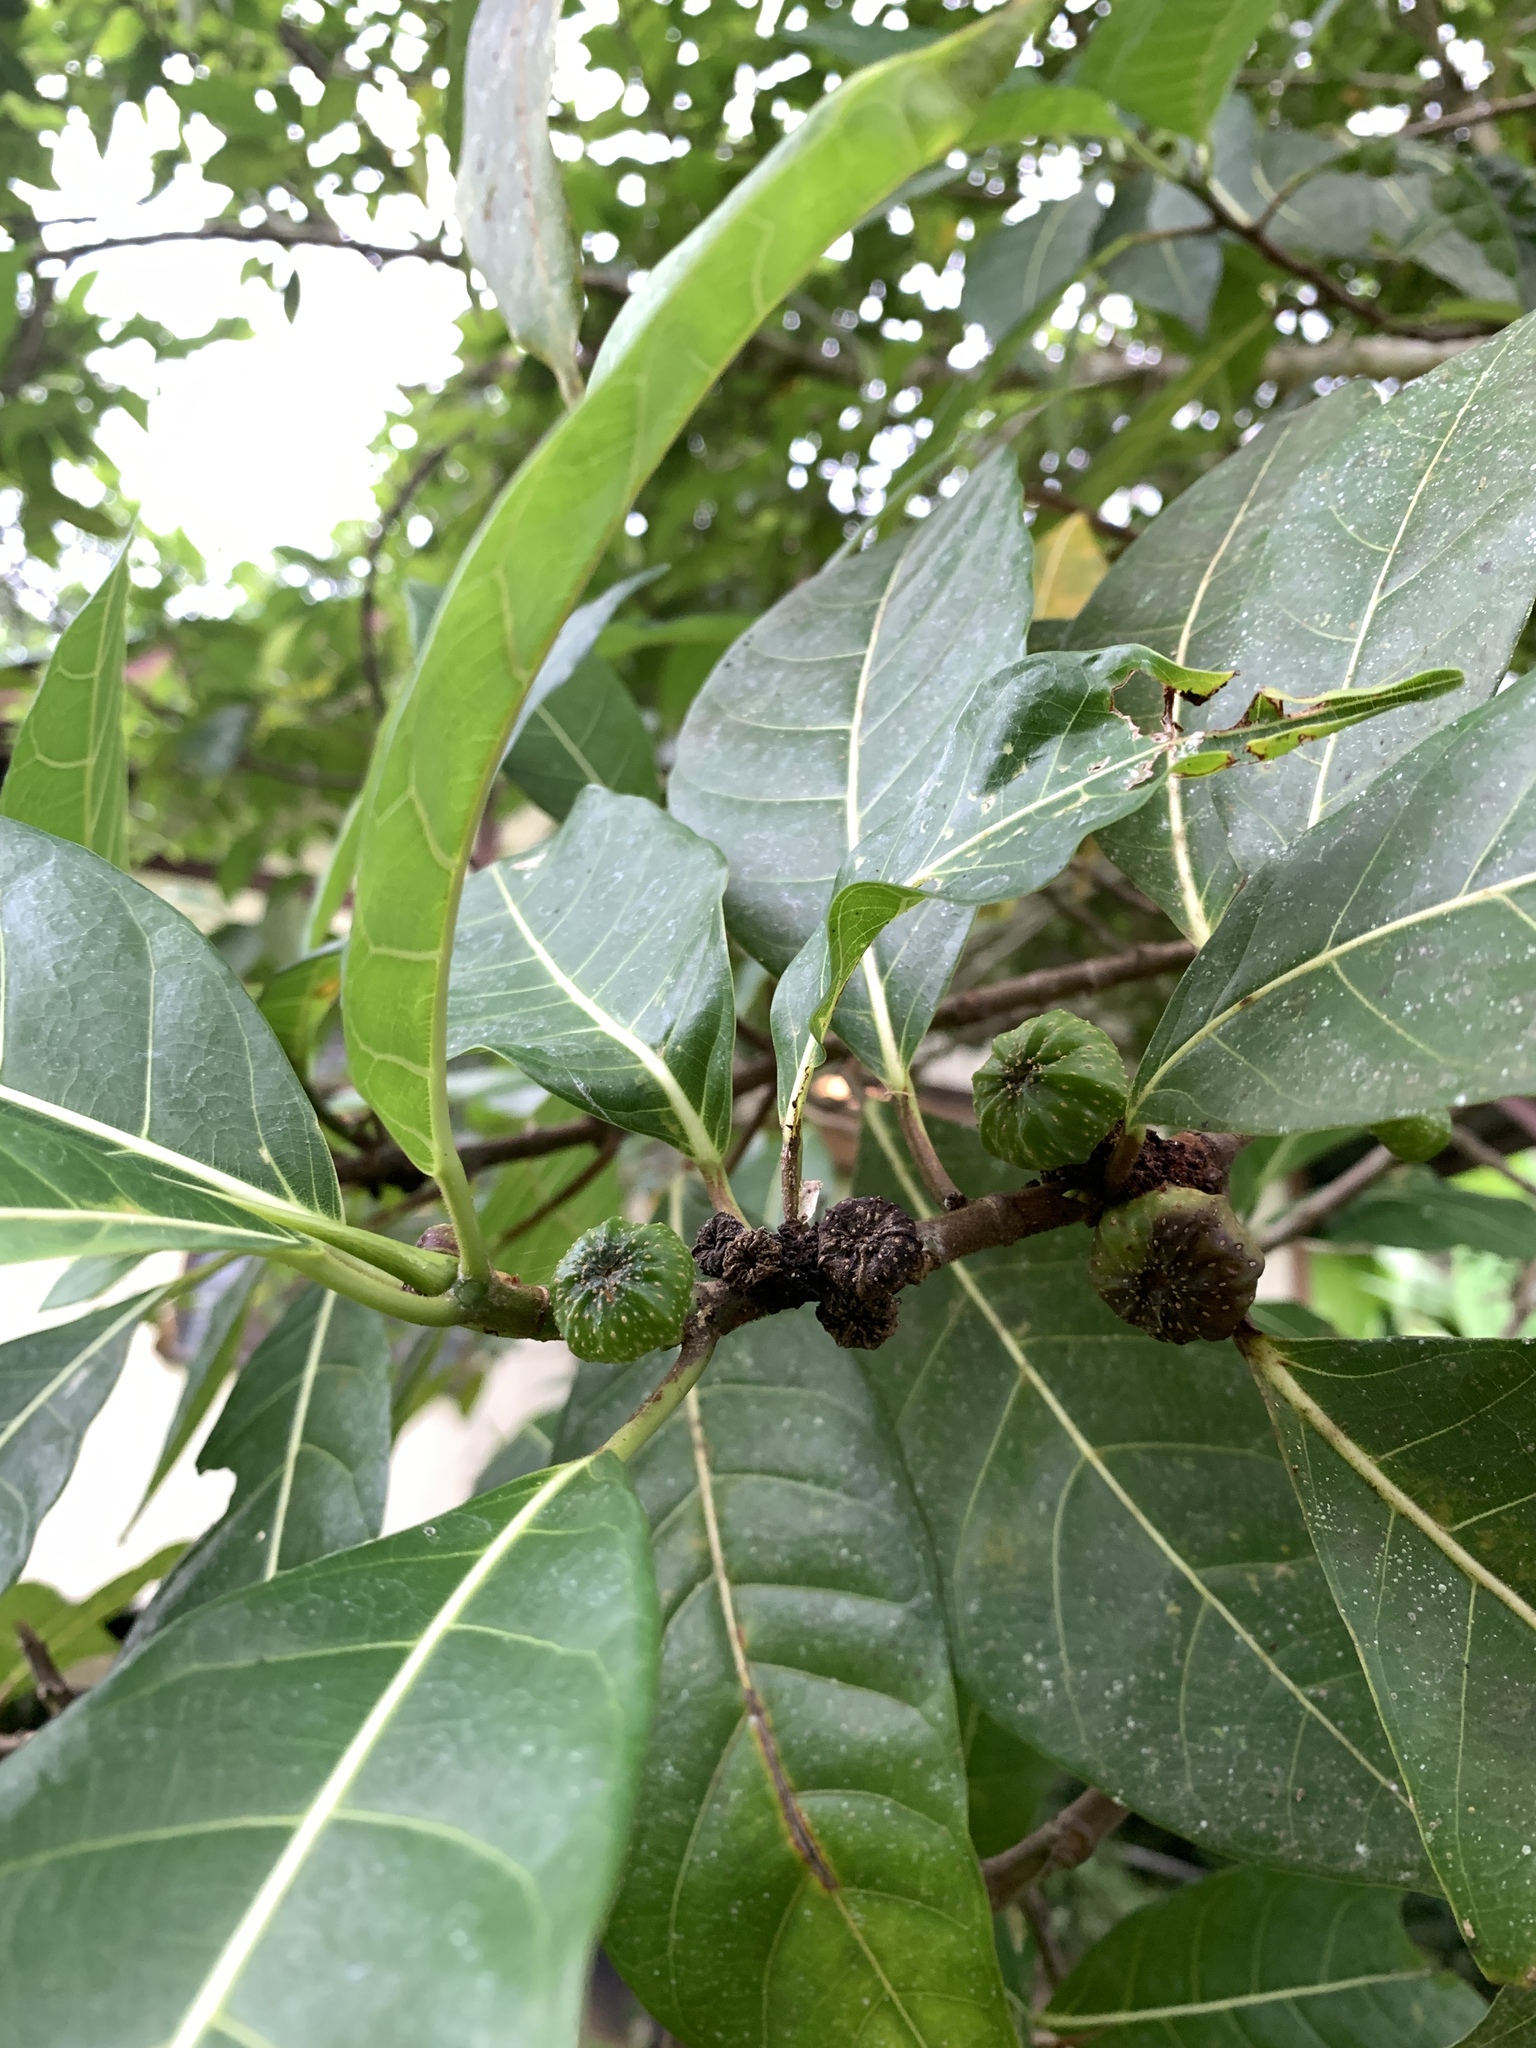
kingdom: Plantae
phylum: Tracheophyta
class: Magnoliopsida
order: Rosales
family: Moraceae
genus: Ficus
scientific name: Ficus septica
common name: Septic fig
